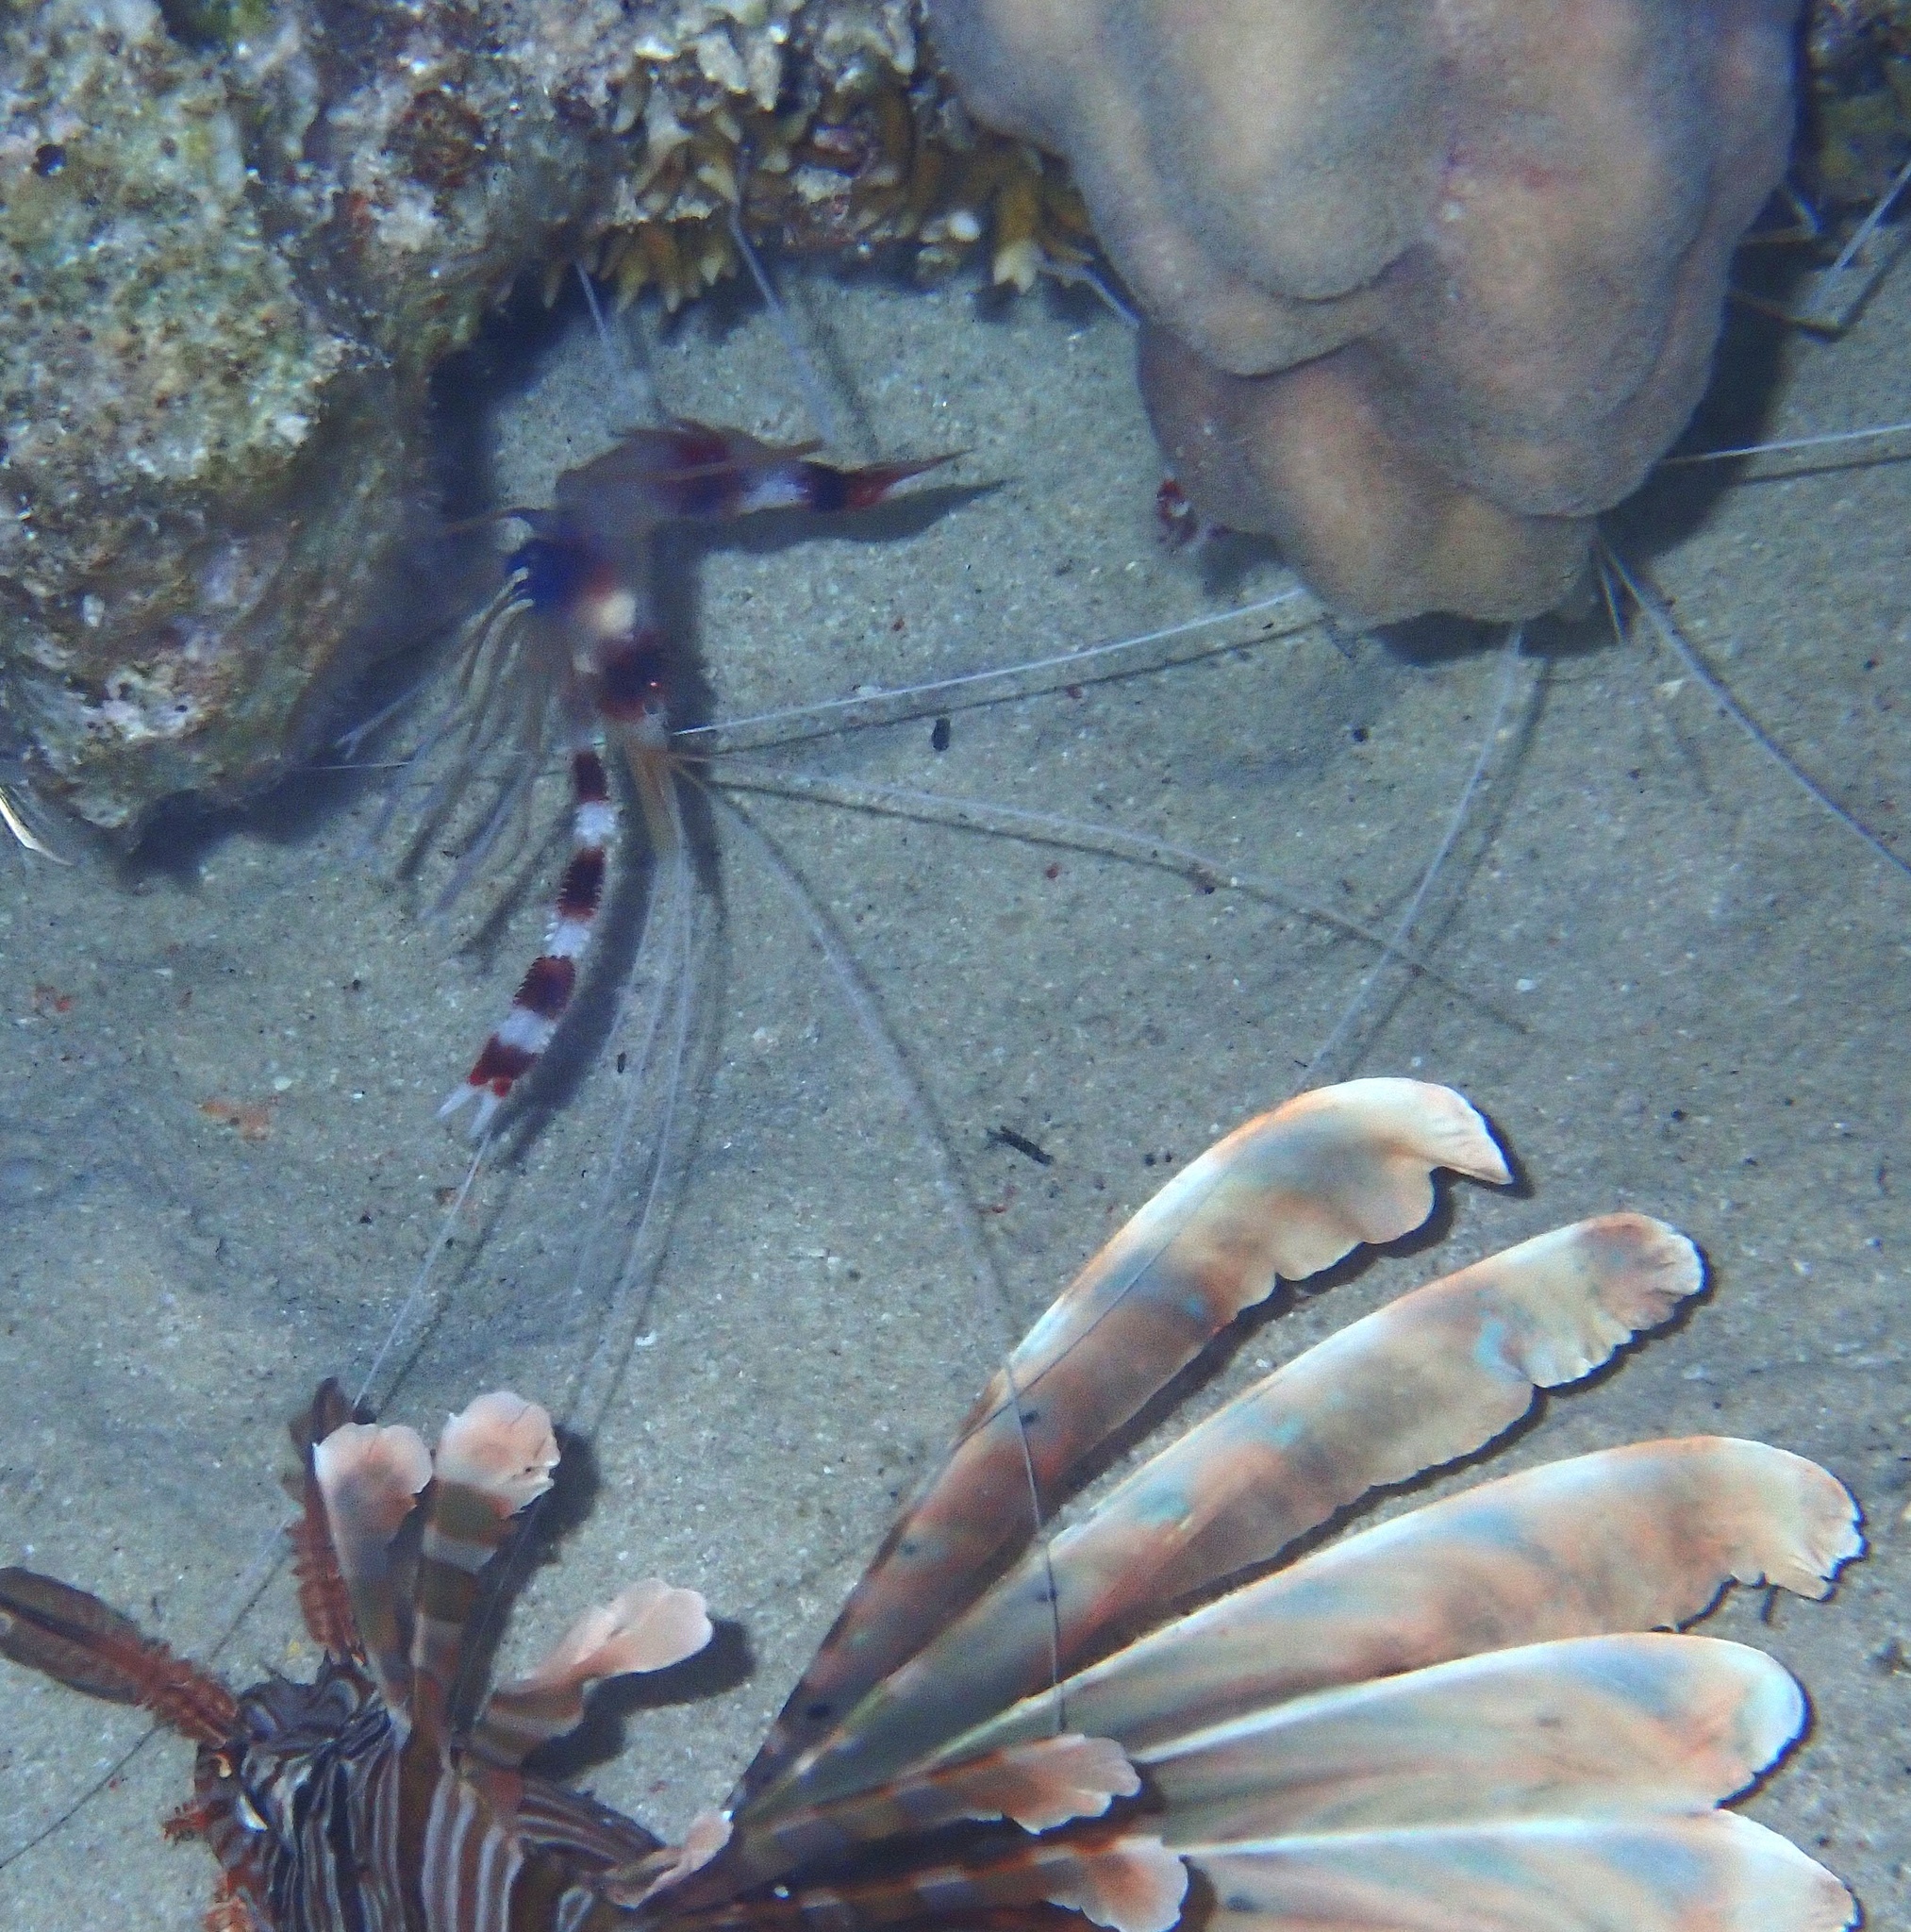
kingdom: Animalia
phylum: Arthropoda
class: Malacostraca
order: Decapoda
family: Stenopodidae
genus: Stenopus
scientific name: Stenopus hispidus
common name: Banded coral shrimp
